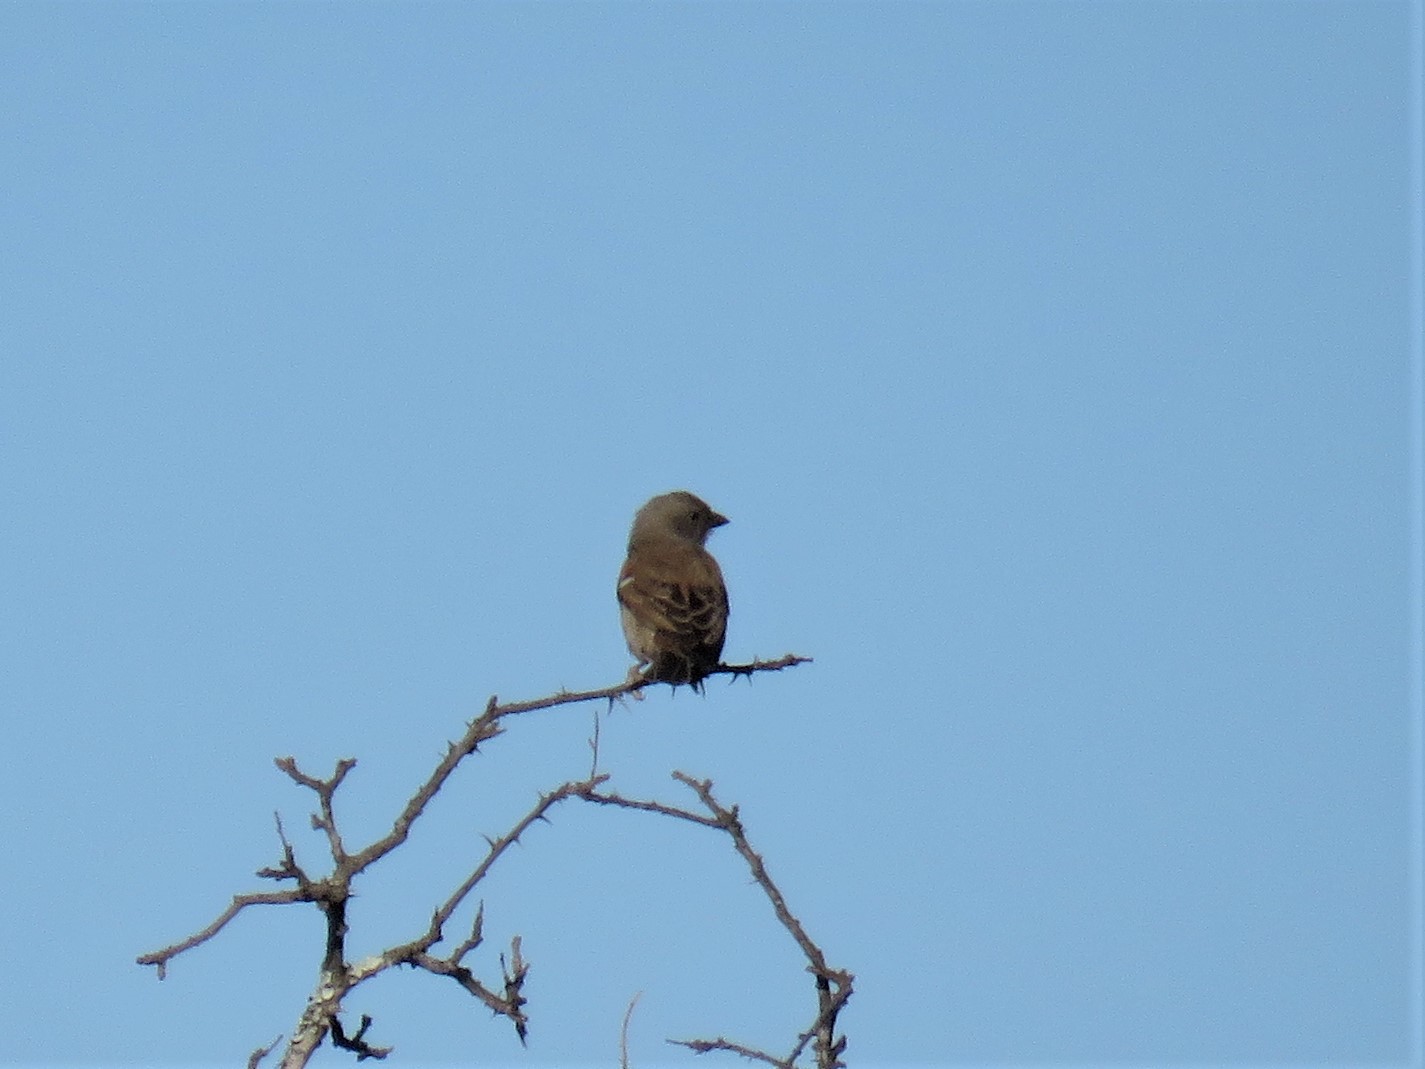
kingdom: Animalia
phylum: Chordata
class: Aves
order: Passeriformes
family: Passeridae
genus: Passer
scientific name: Passer diffusus
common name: Southern grey-headed sparrow
